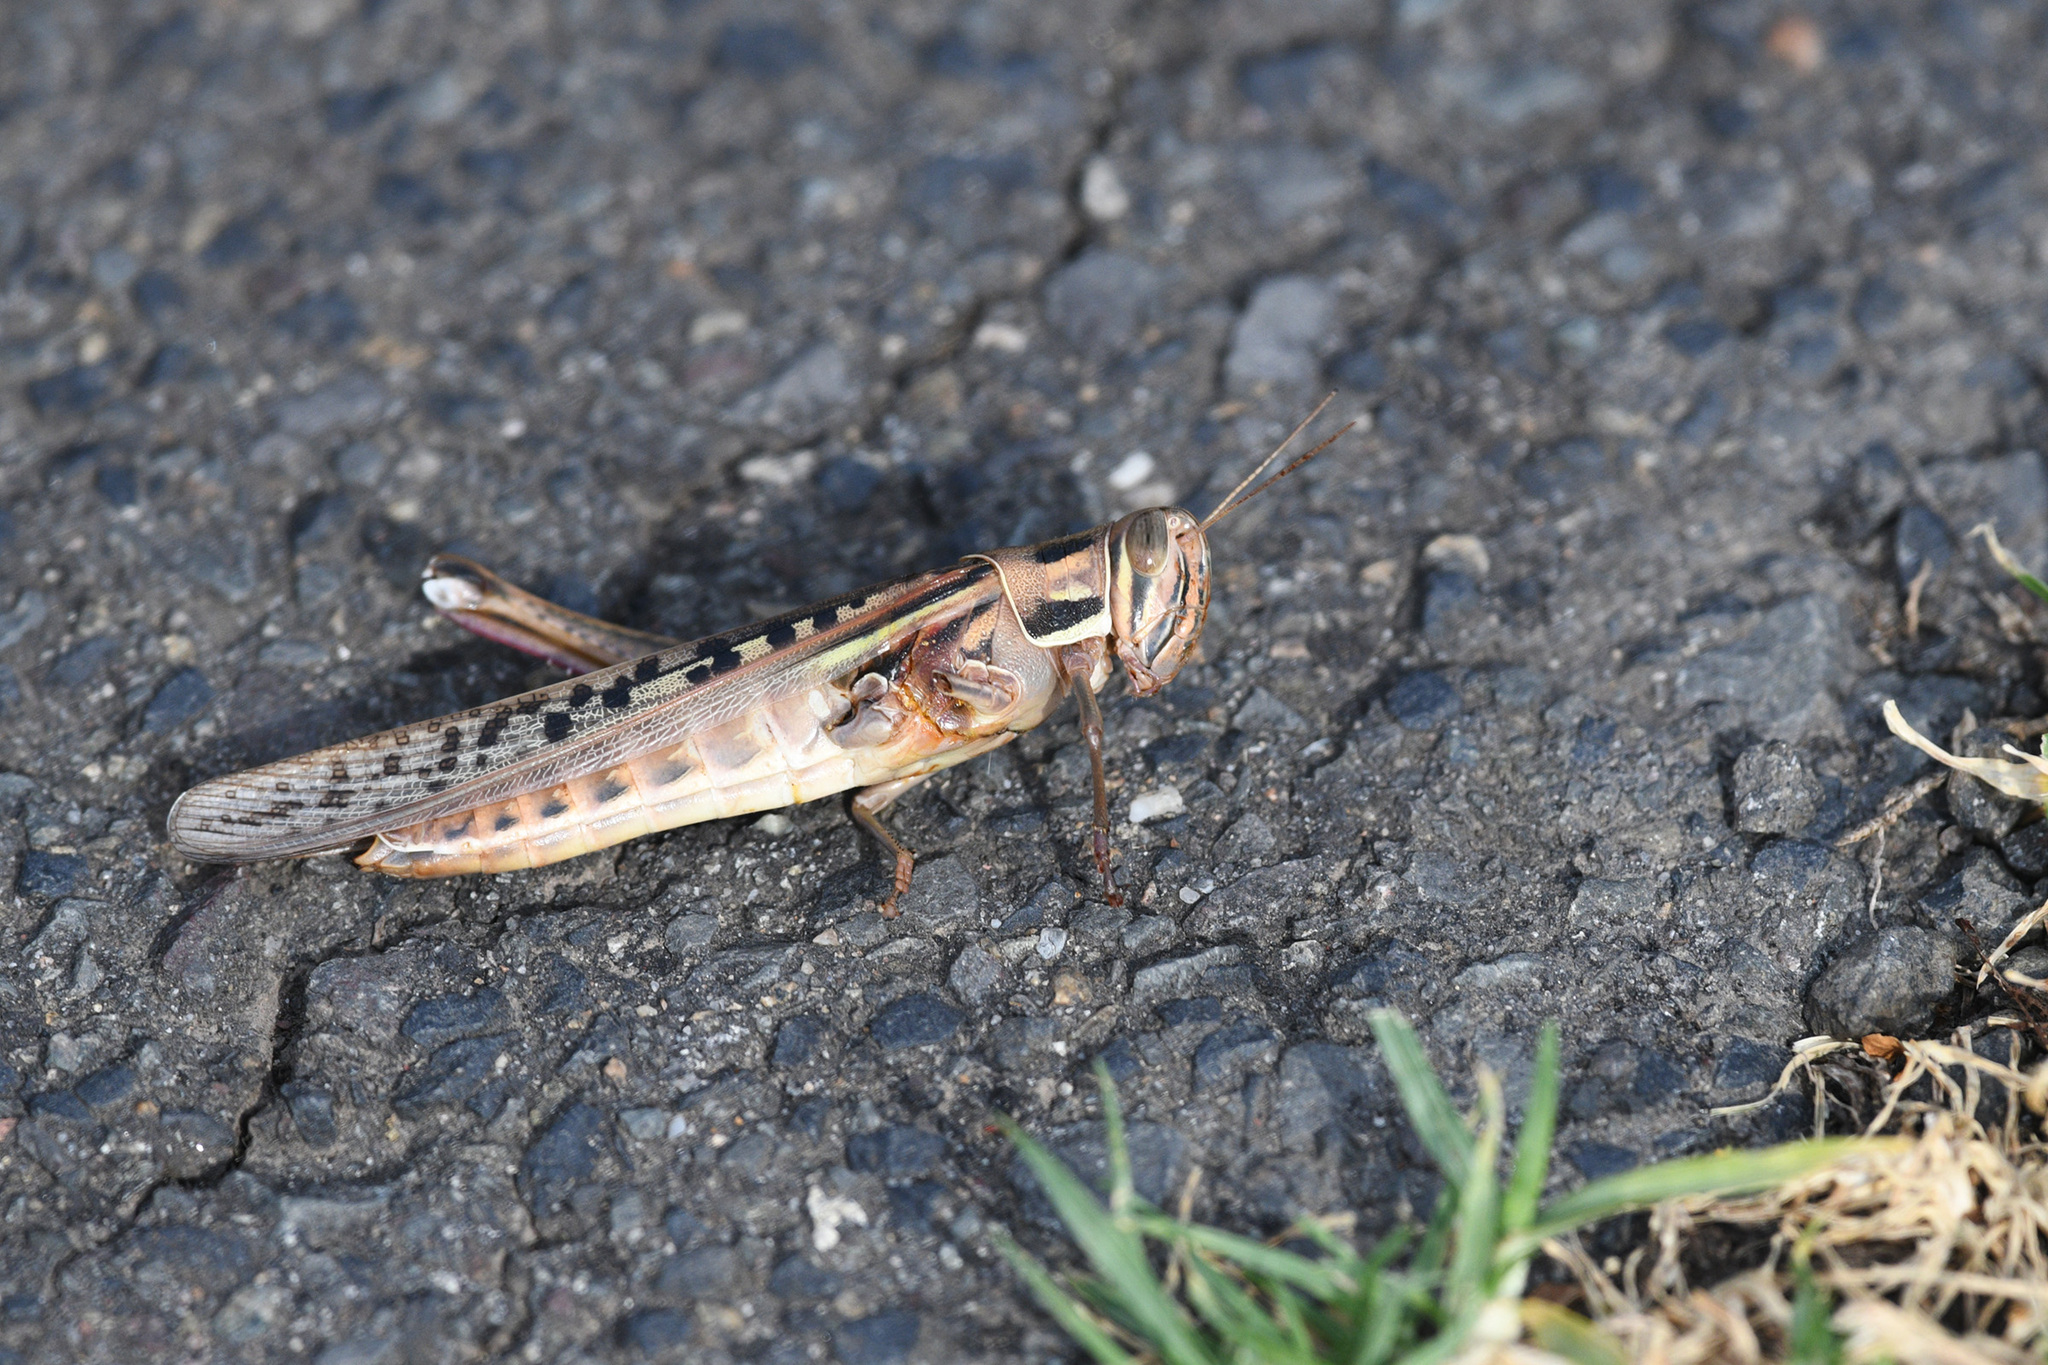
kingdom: Animalia
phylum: Arthropoda
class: Insecta
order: Orthoptera
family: Acrididae
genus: Austracris
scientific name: Austracris guttulosa
